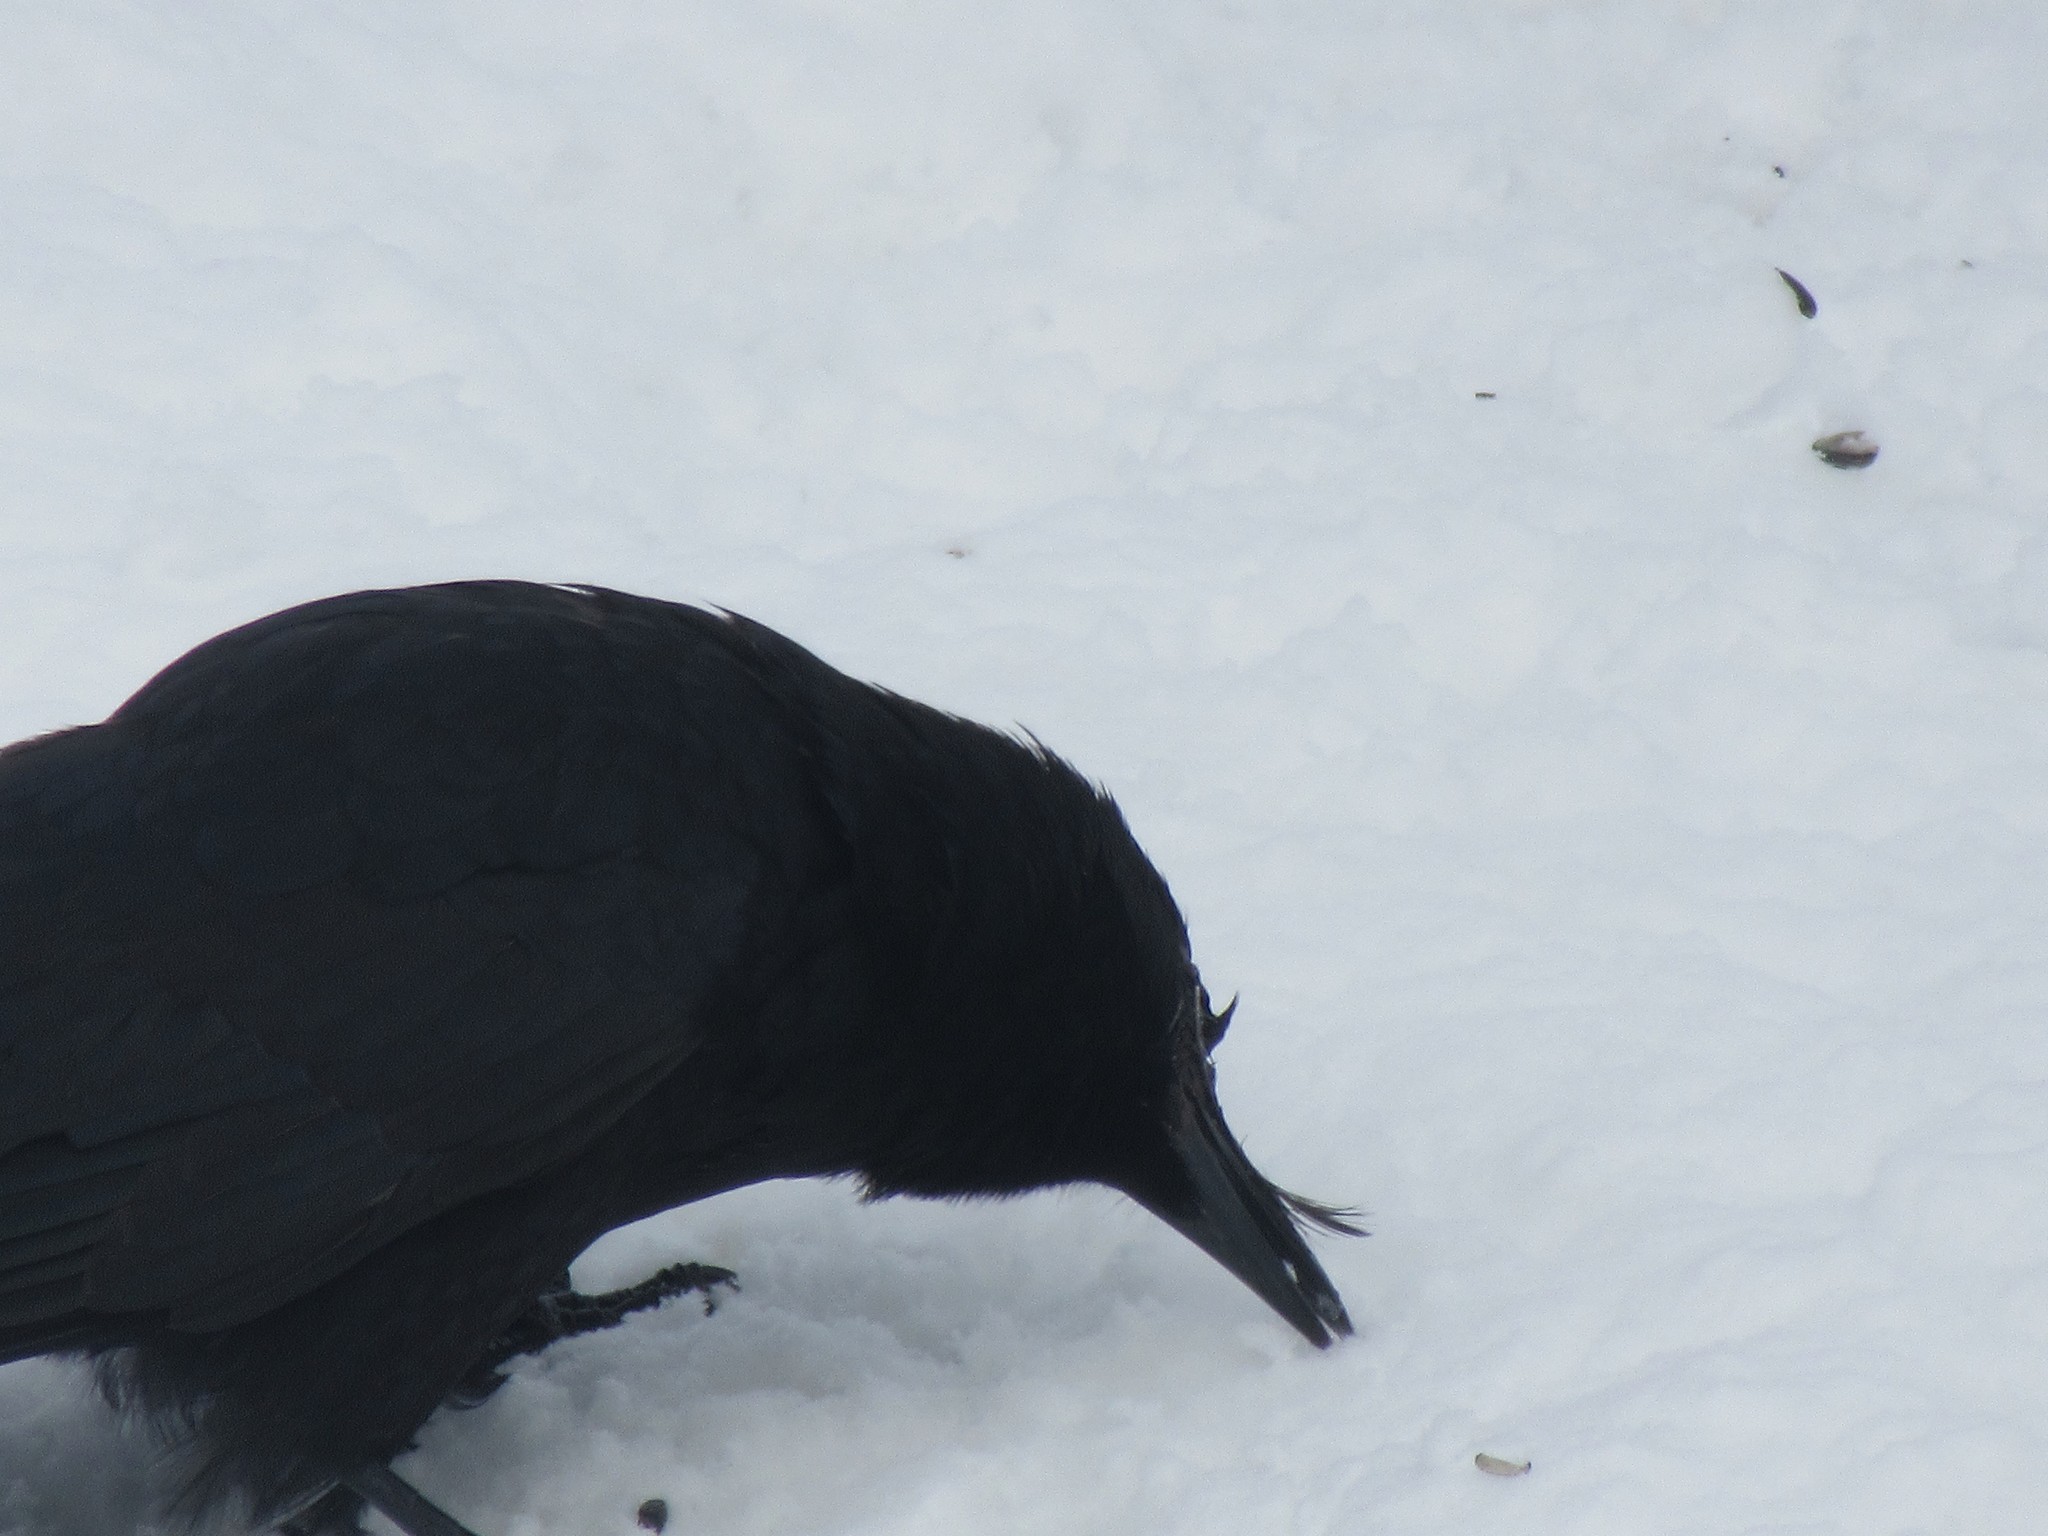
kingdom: Animalia
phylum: Chordata
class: Aves
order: Passeriformes
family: Corvidae
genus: Corvus
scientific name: Corvus brachyrhynchos
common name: American crow
